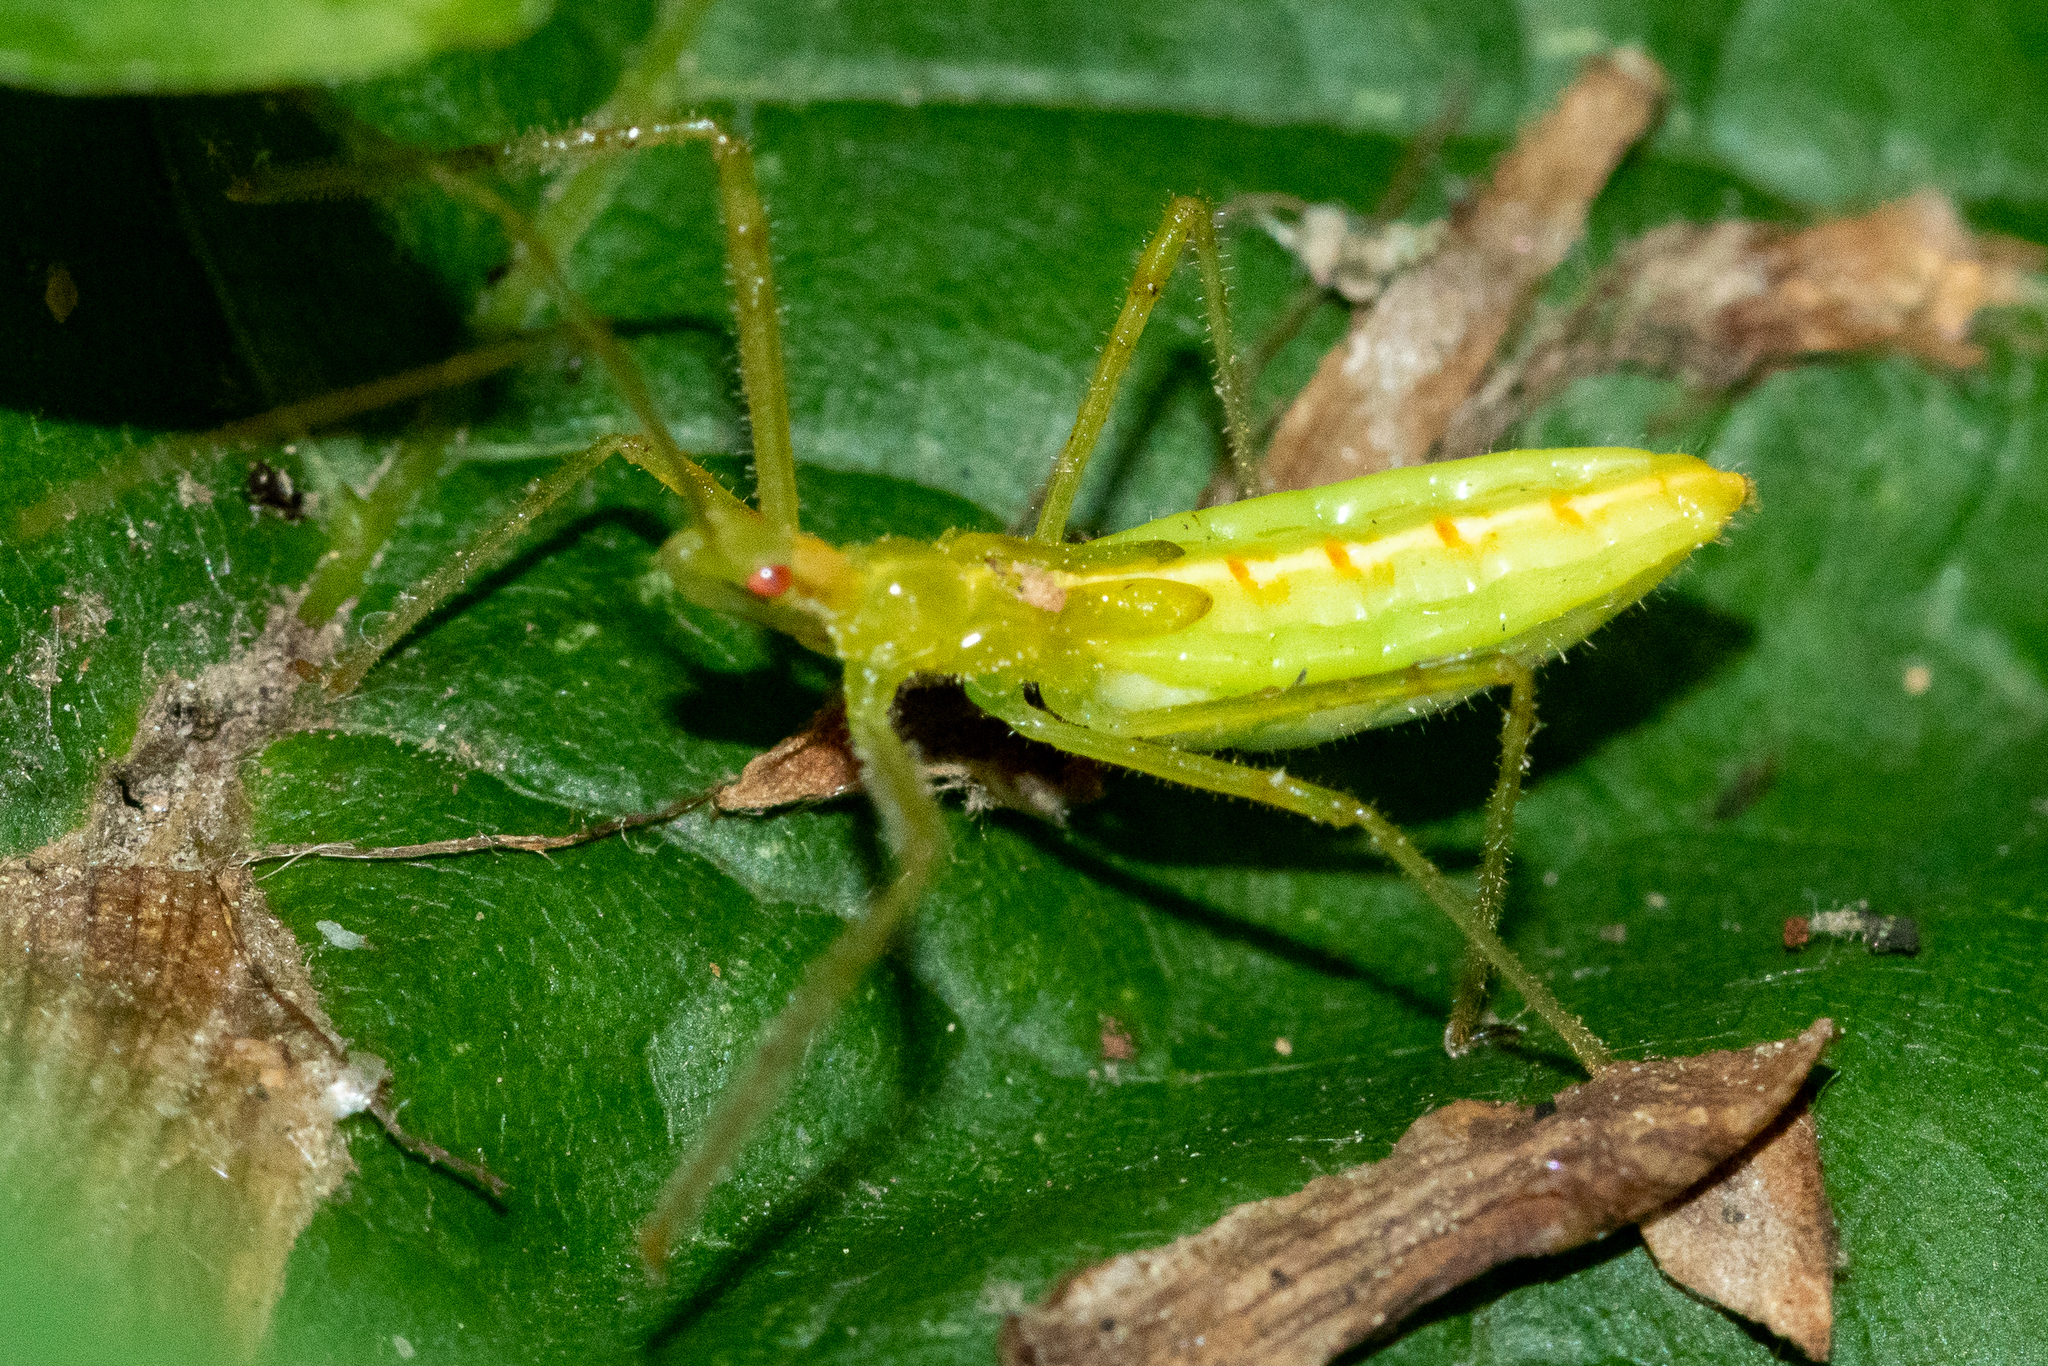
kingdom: Animalia
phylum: Arthropoda
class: Insecta
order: Hemiptera
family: Reduviidae
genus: Zelus
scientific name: Zelus luridus
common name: Pale green assassin bug
